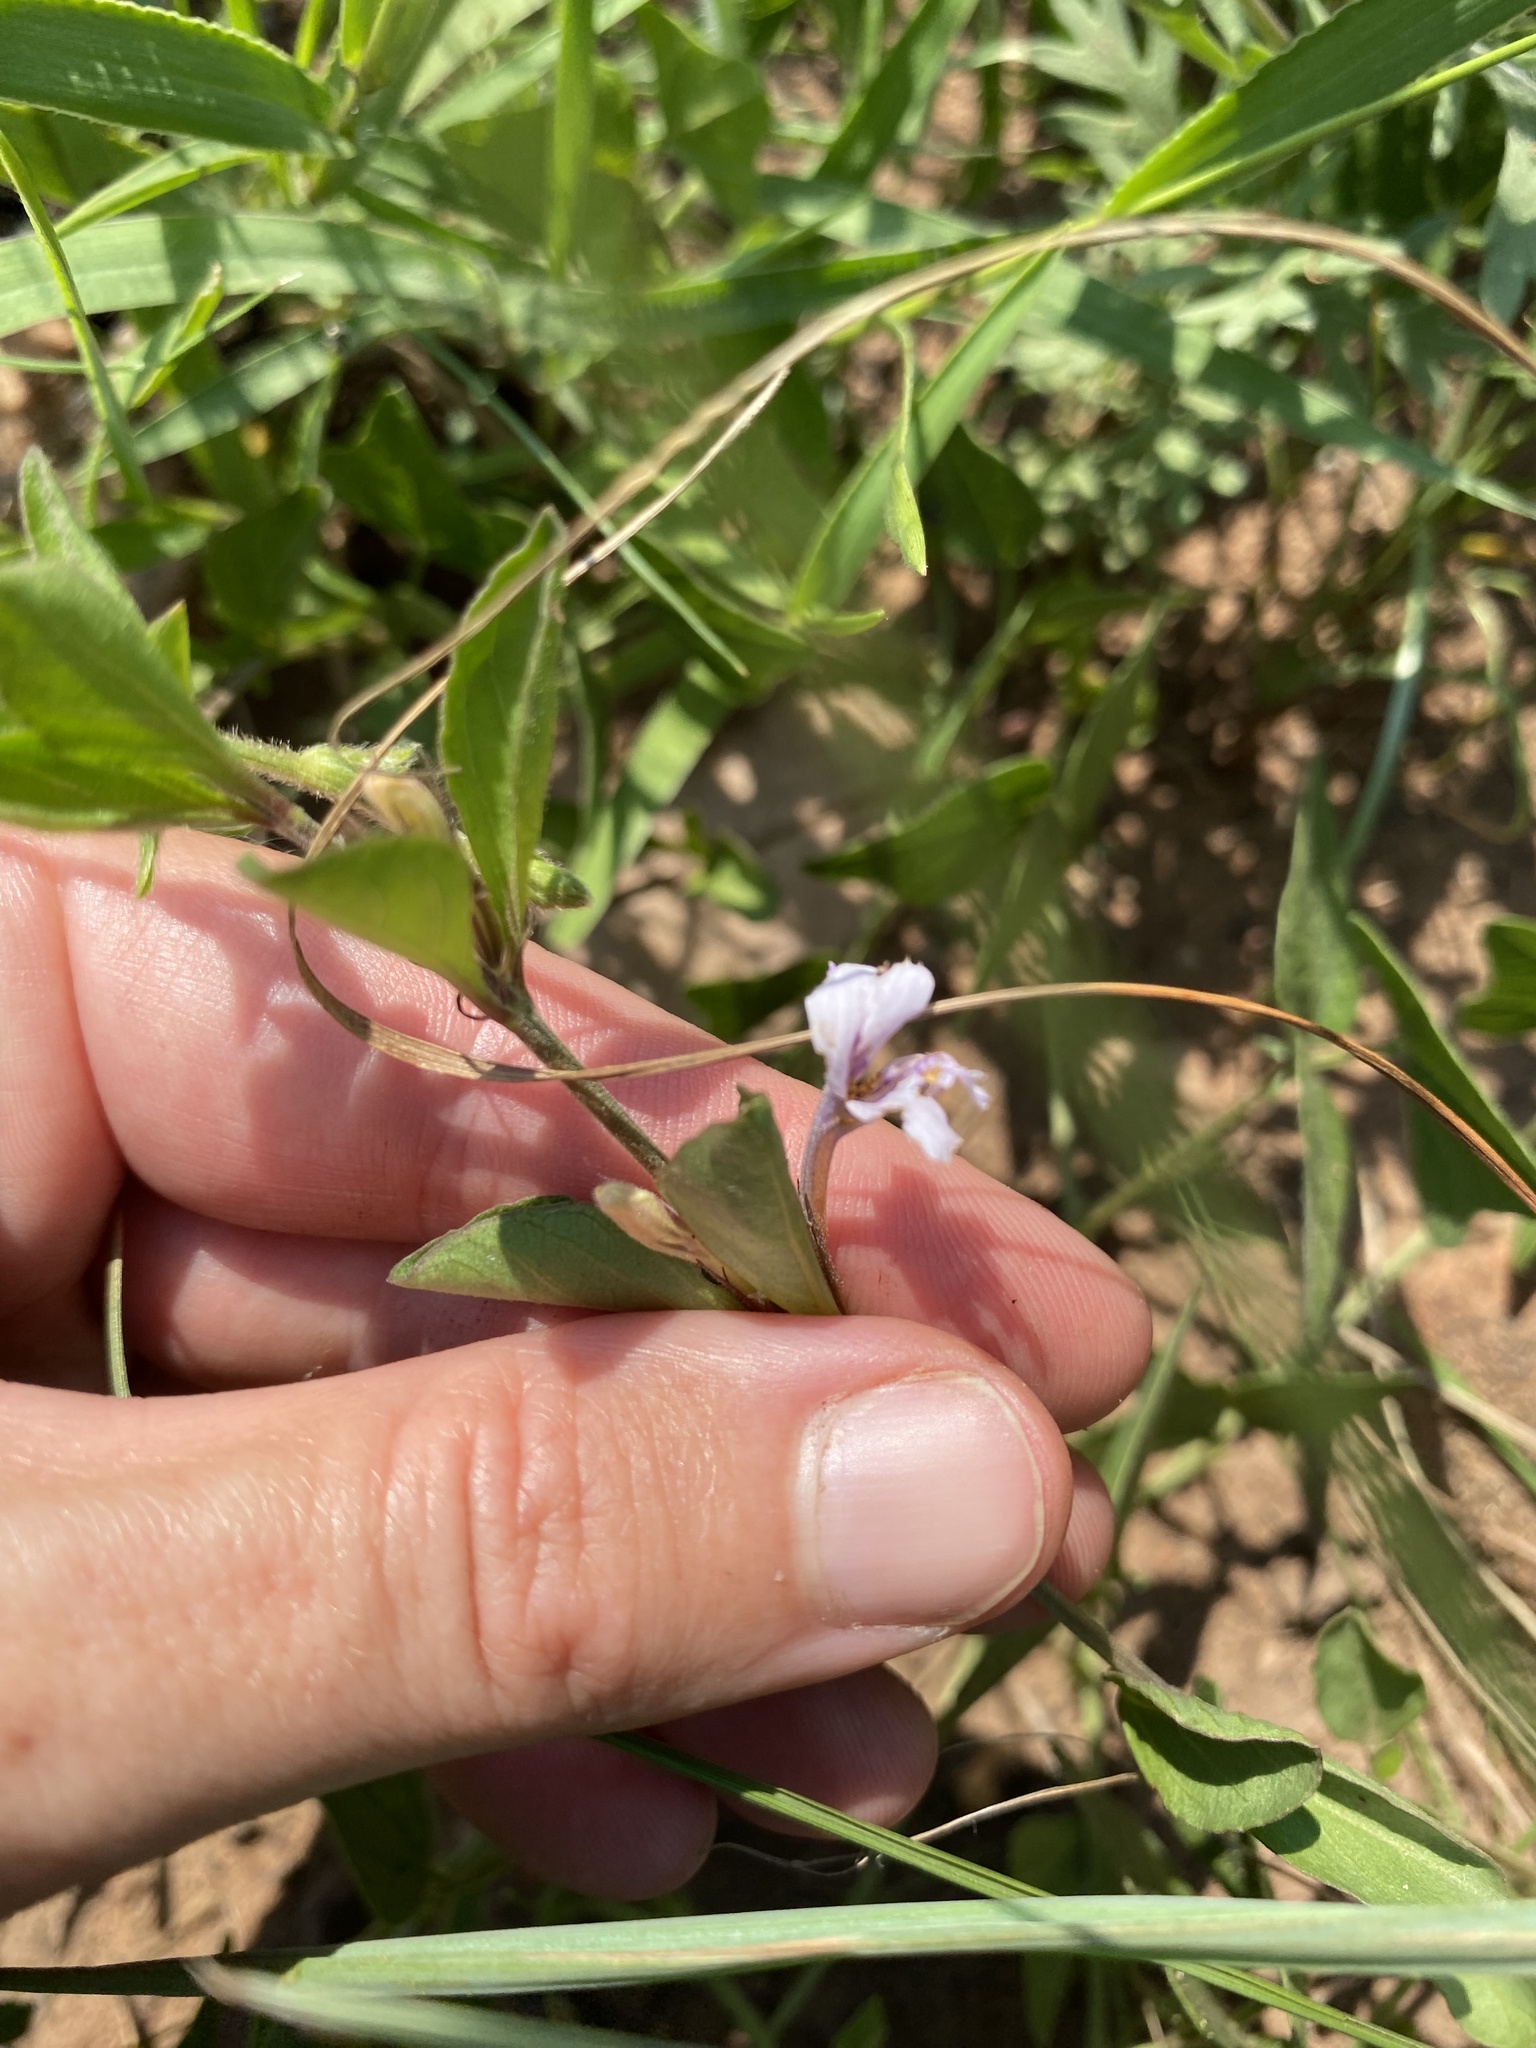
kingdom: Plantae
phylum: Tracheophyta
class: Magnoliopsida
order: Lamiales
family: Acanthaceae
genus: Ruellia
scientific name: Ruellia cordata
